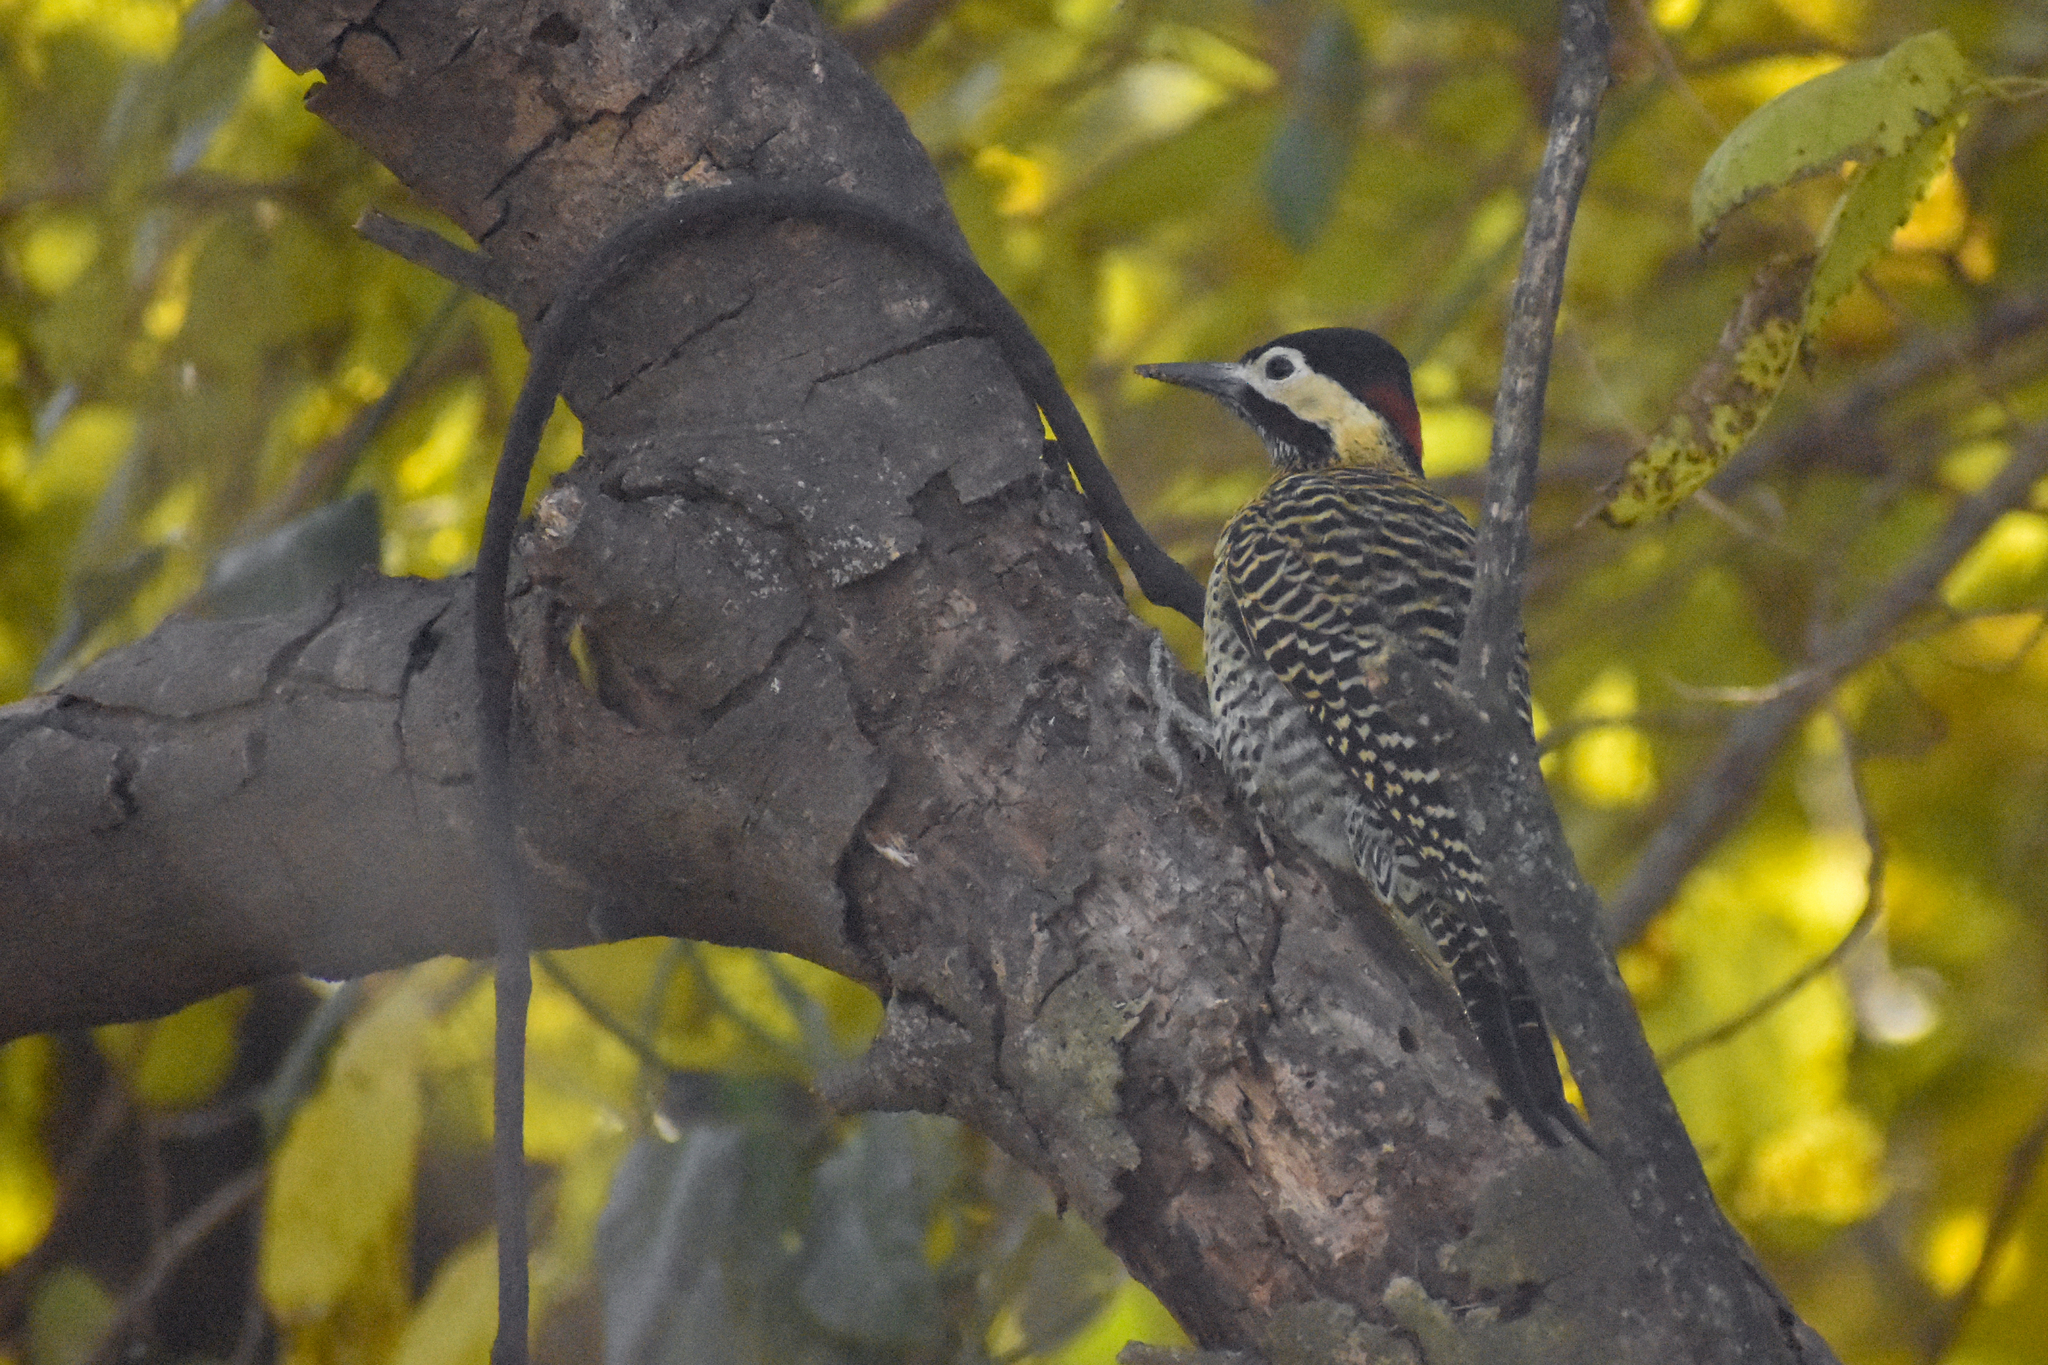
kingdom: Animalia
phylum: Chordata
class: Aves
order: Piciformes
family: Picidae
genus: Colaptes
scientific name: Colaptes melanochloros
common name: Green-barred woodpecker
